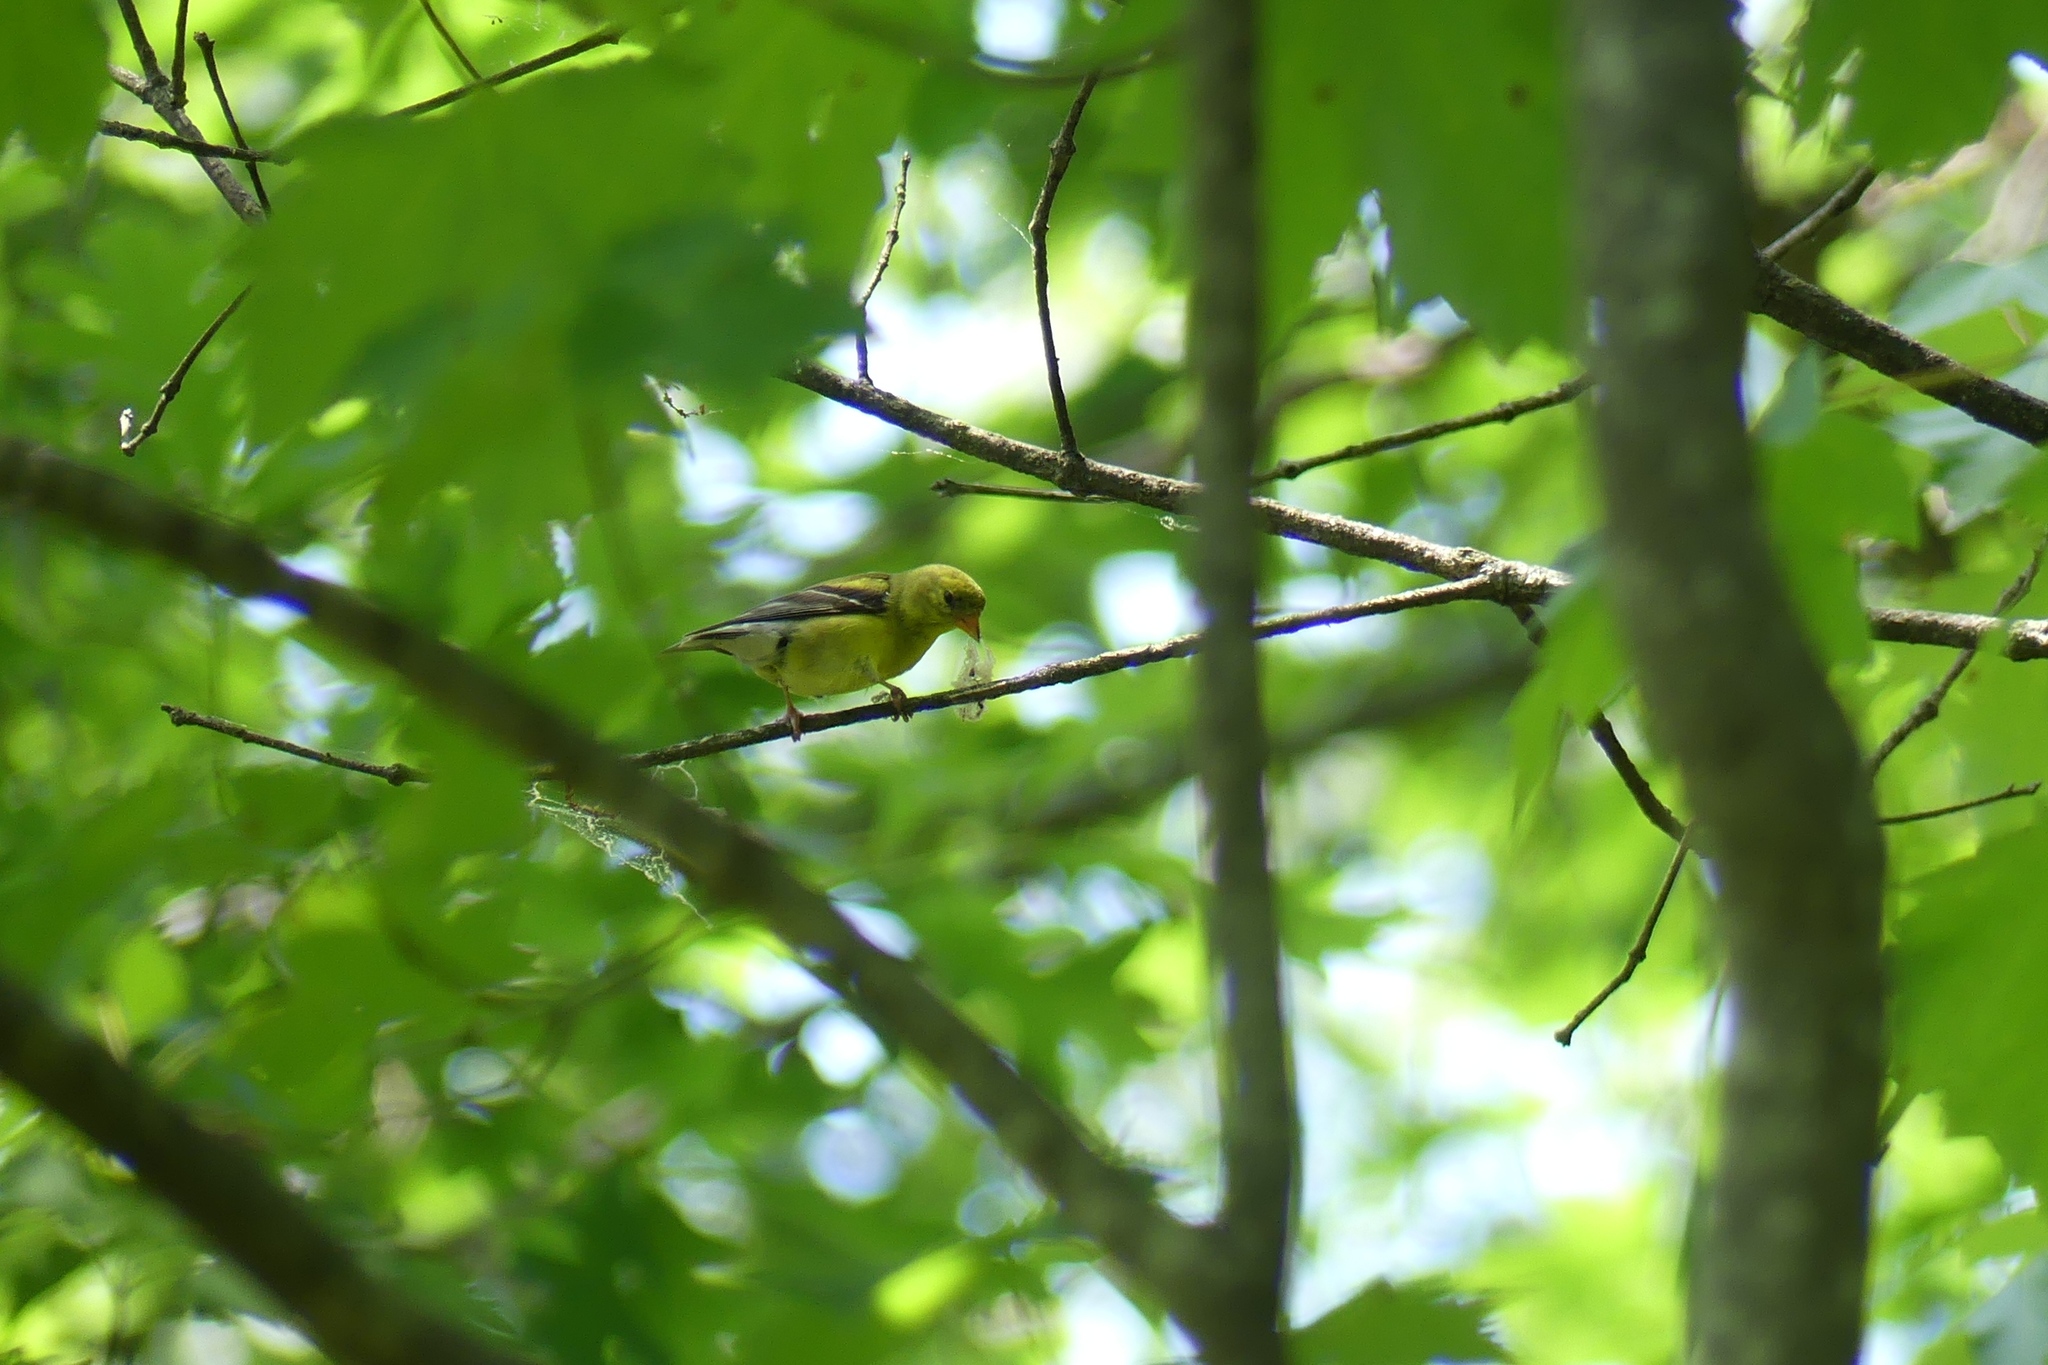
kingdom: Animalia
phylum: Chordata
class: Aves
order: Passeriformes
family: Fringillidae
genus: Spinus
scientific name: Spinus tristis
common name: American goldfinch
